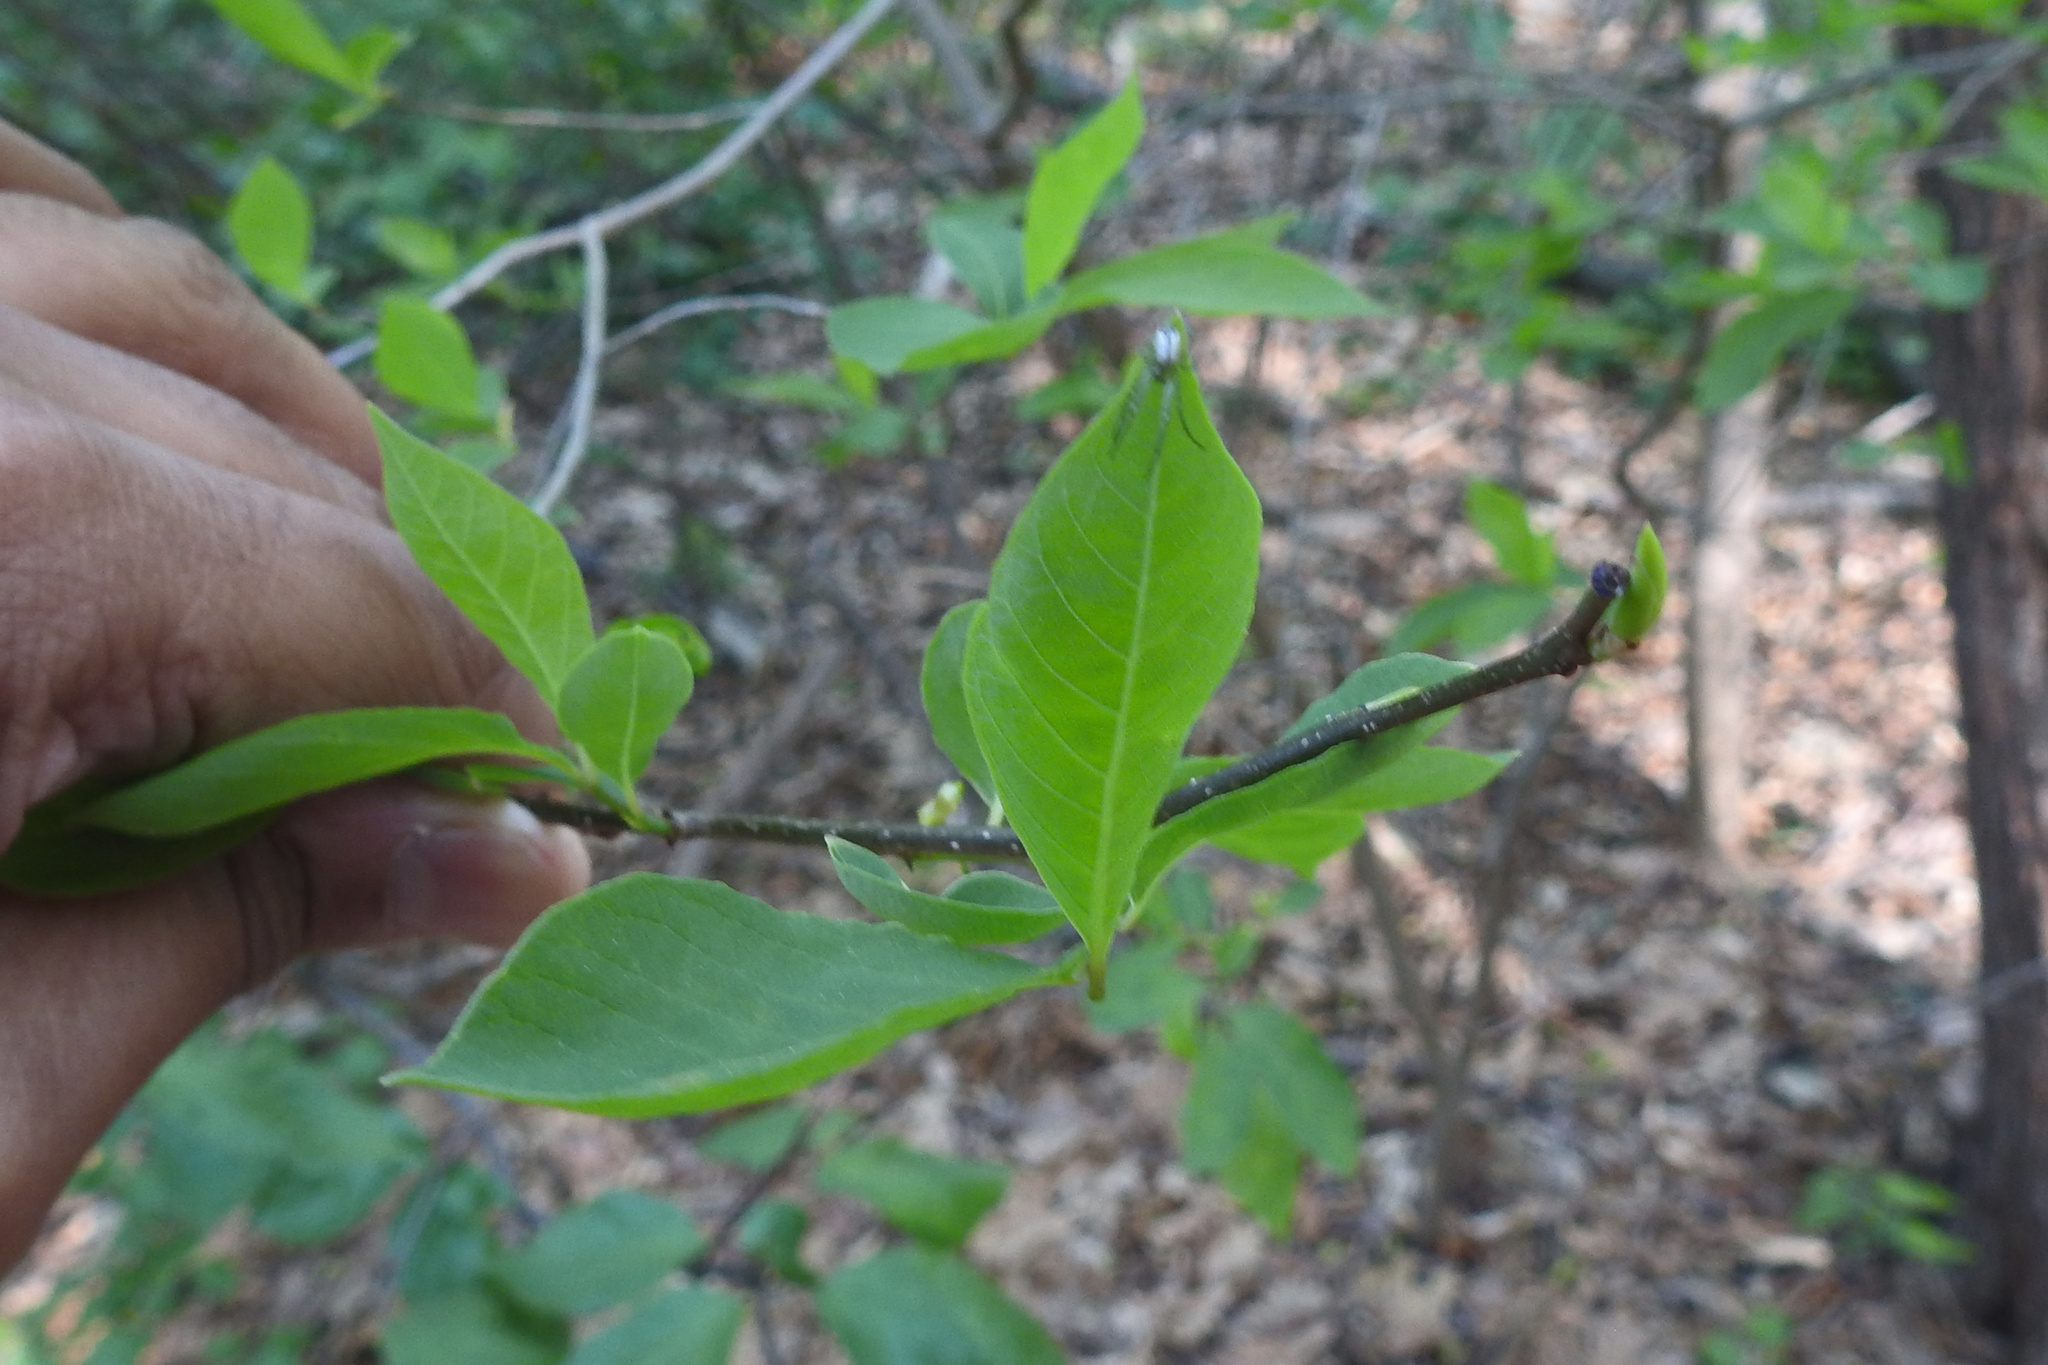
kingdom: Plantae
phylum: Tracheophyta
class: Magnoliopsida
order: Laurales
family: Lauraceae
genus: Lindera
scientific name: Lindera benzoin
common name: Spicebush
